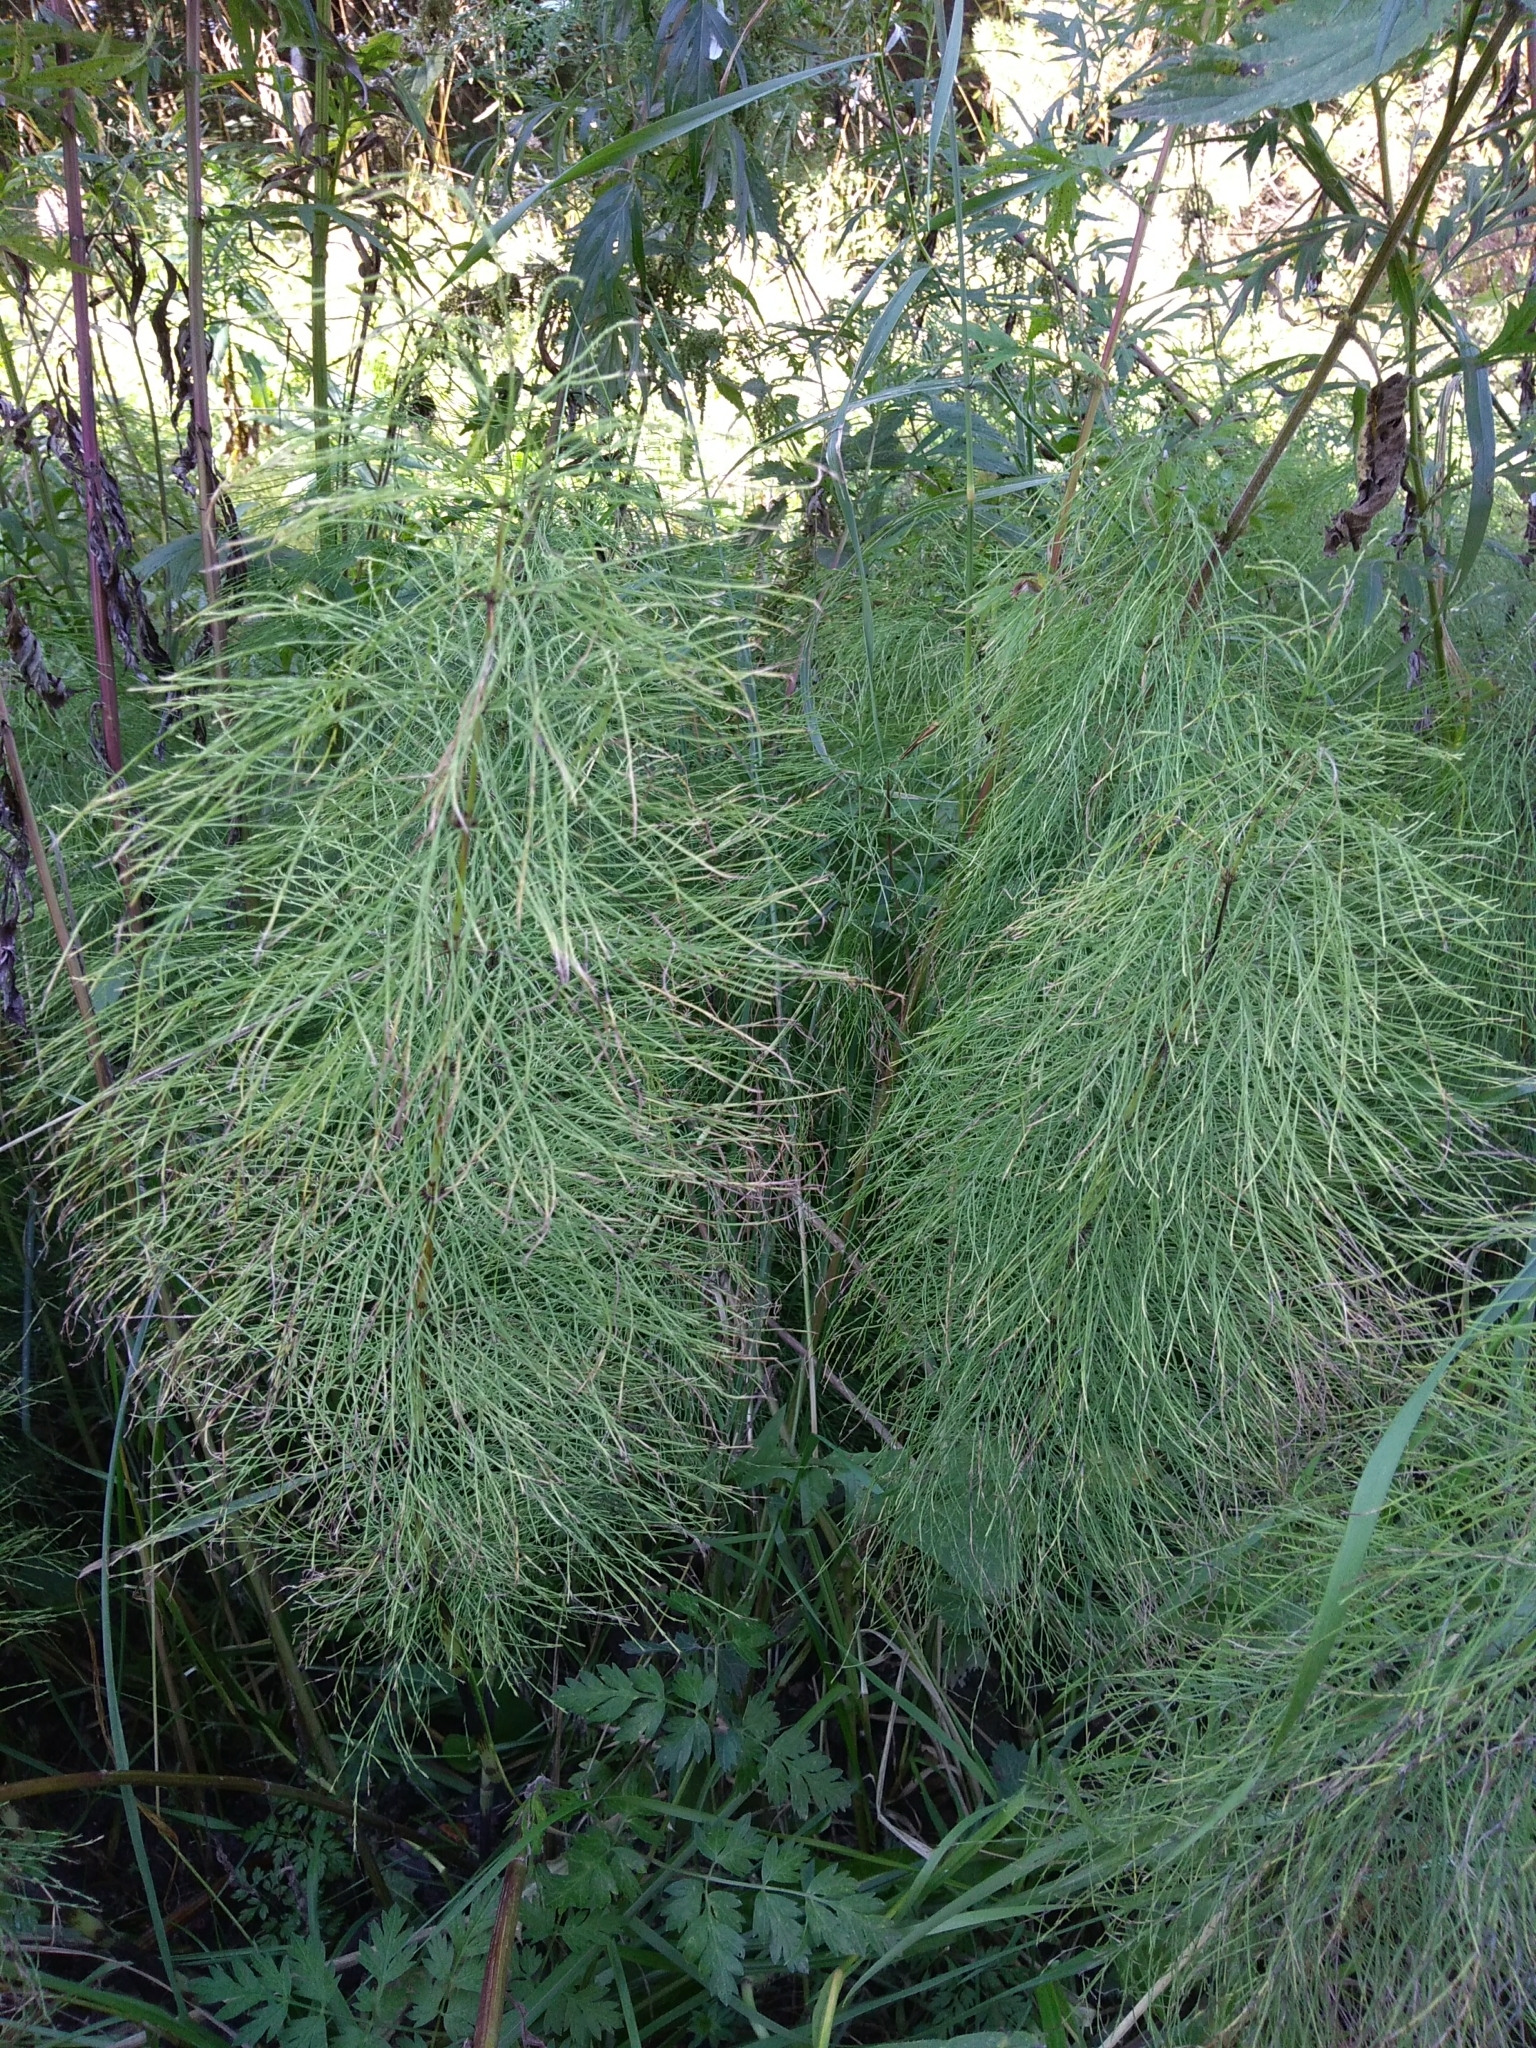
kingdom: Plantae
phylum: Tracheophyta
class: Polypodiopsida
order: Equisetales
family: Equisetaceae
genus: Equisetum
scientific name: Equisetum sylvaticum
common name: Wood horsetail
